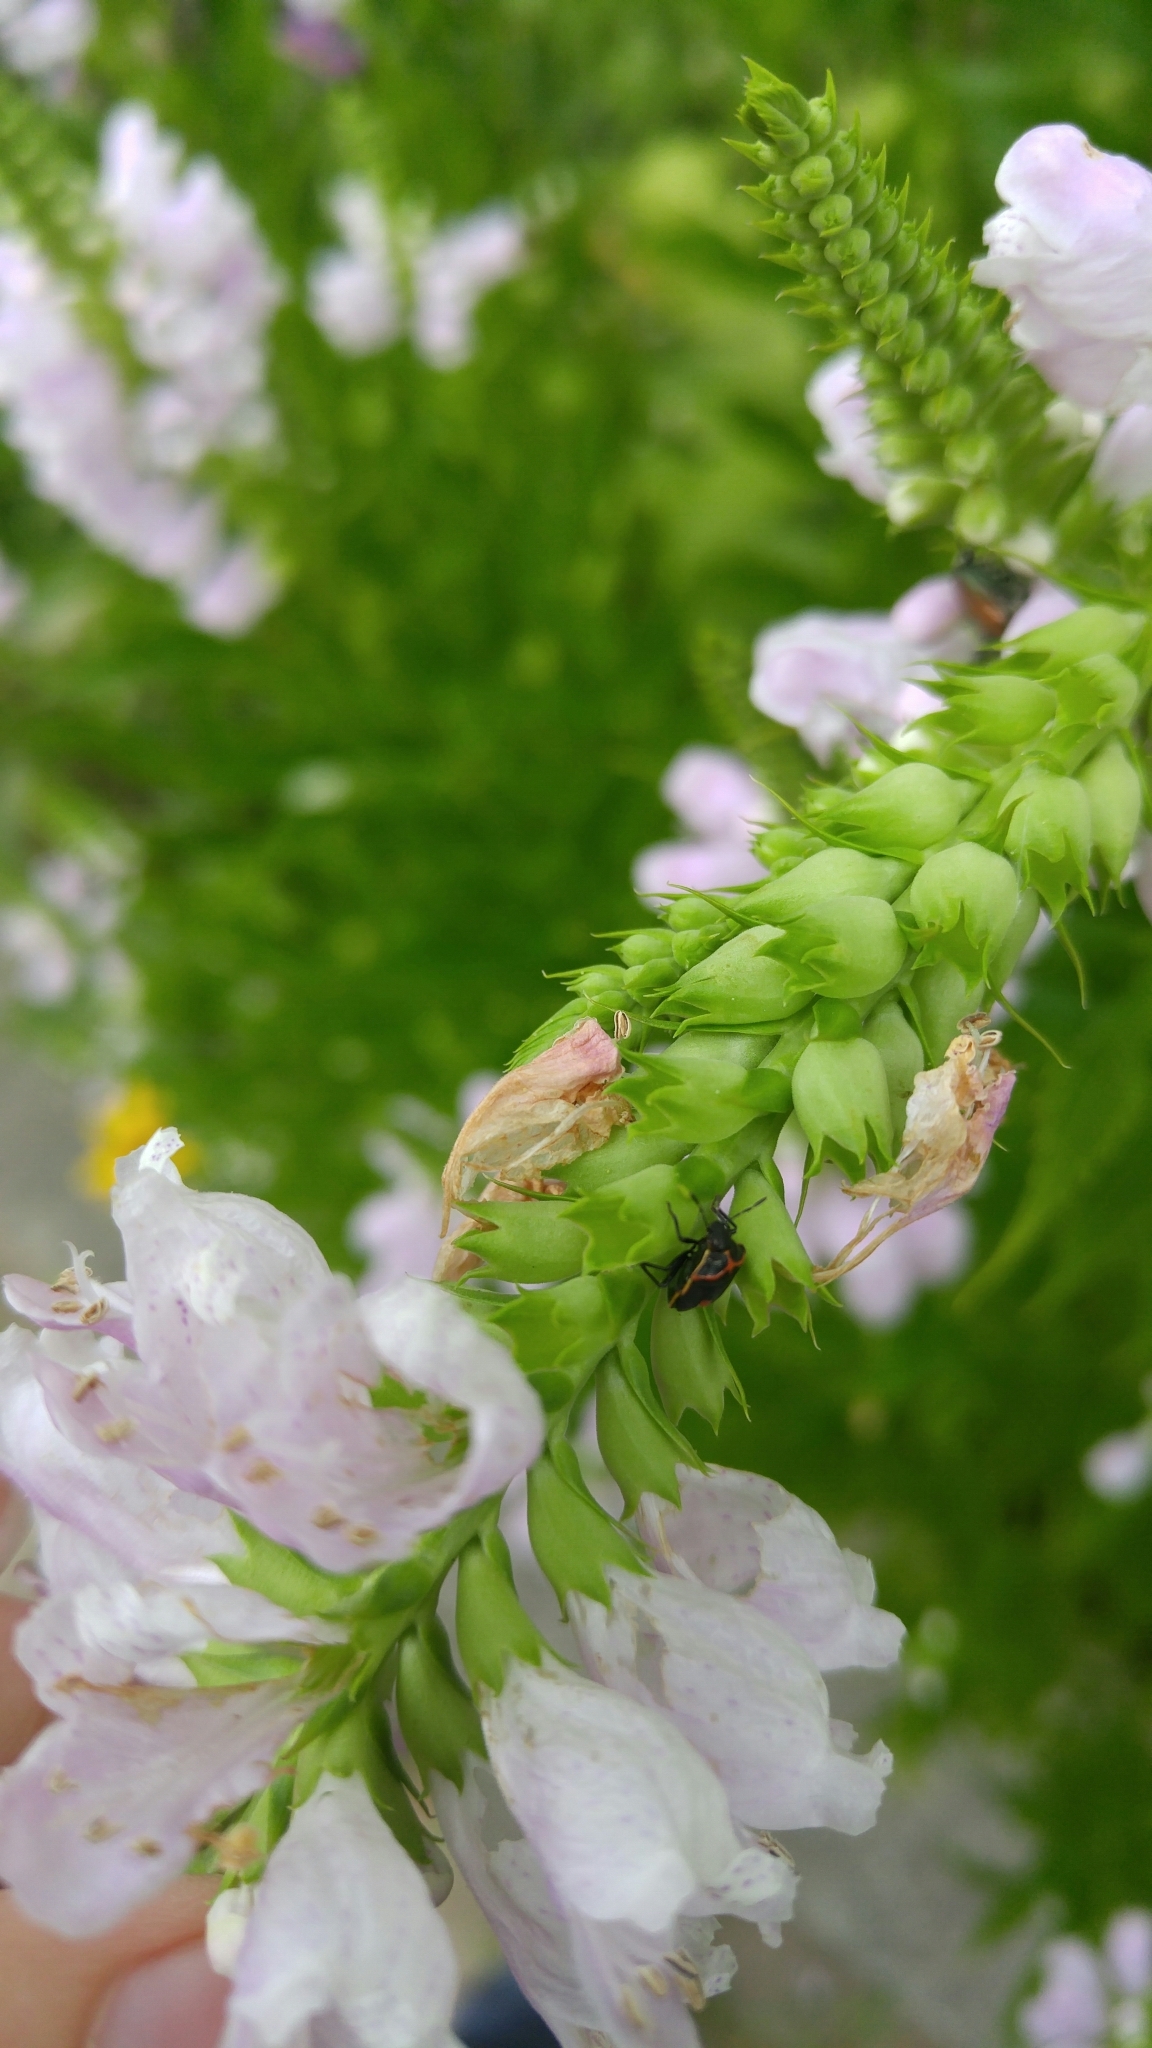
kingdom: Animalia
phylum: Arthropoda
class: Insecta
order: Hemiptera
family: Pentatomidae
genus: Cosmopepla
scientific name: Cosmopepla lintneriana
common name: Twice-stabbed stink bug
